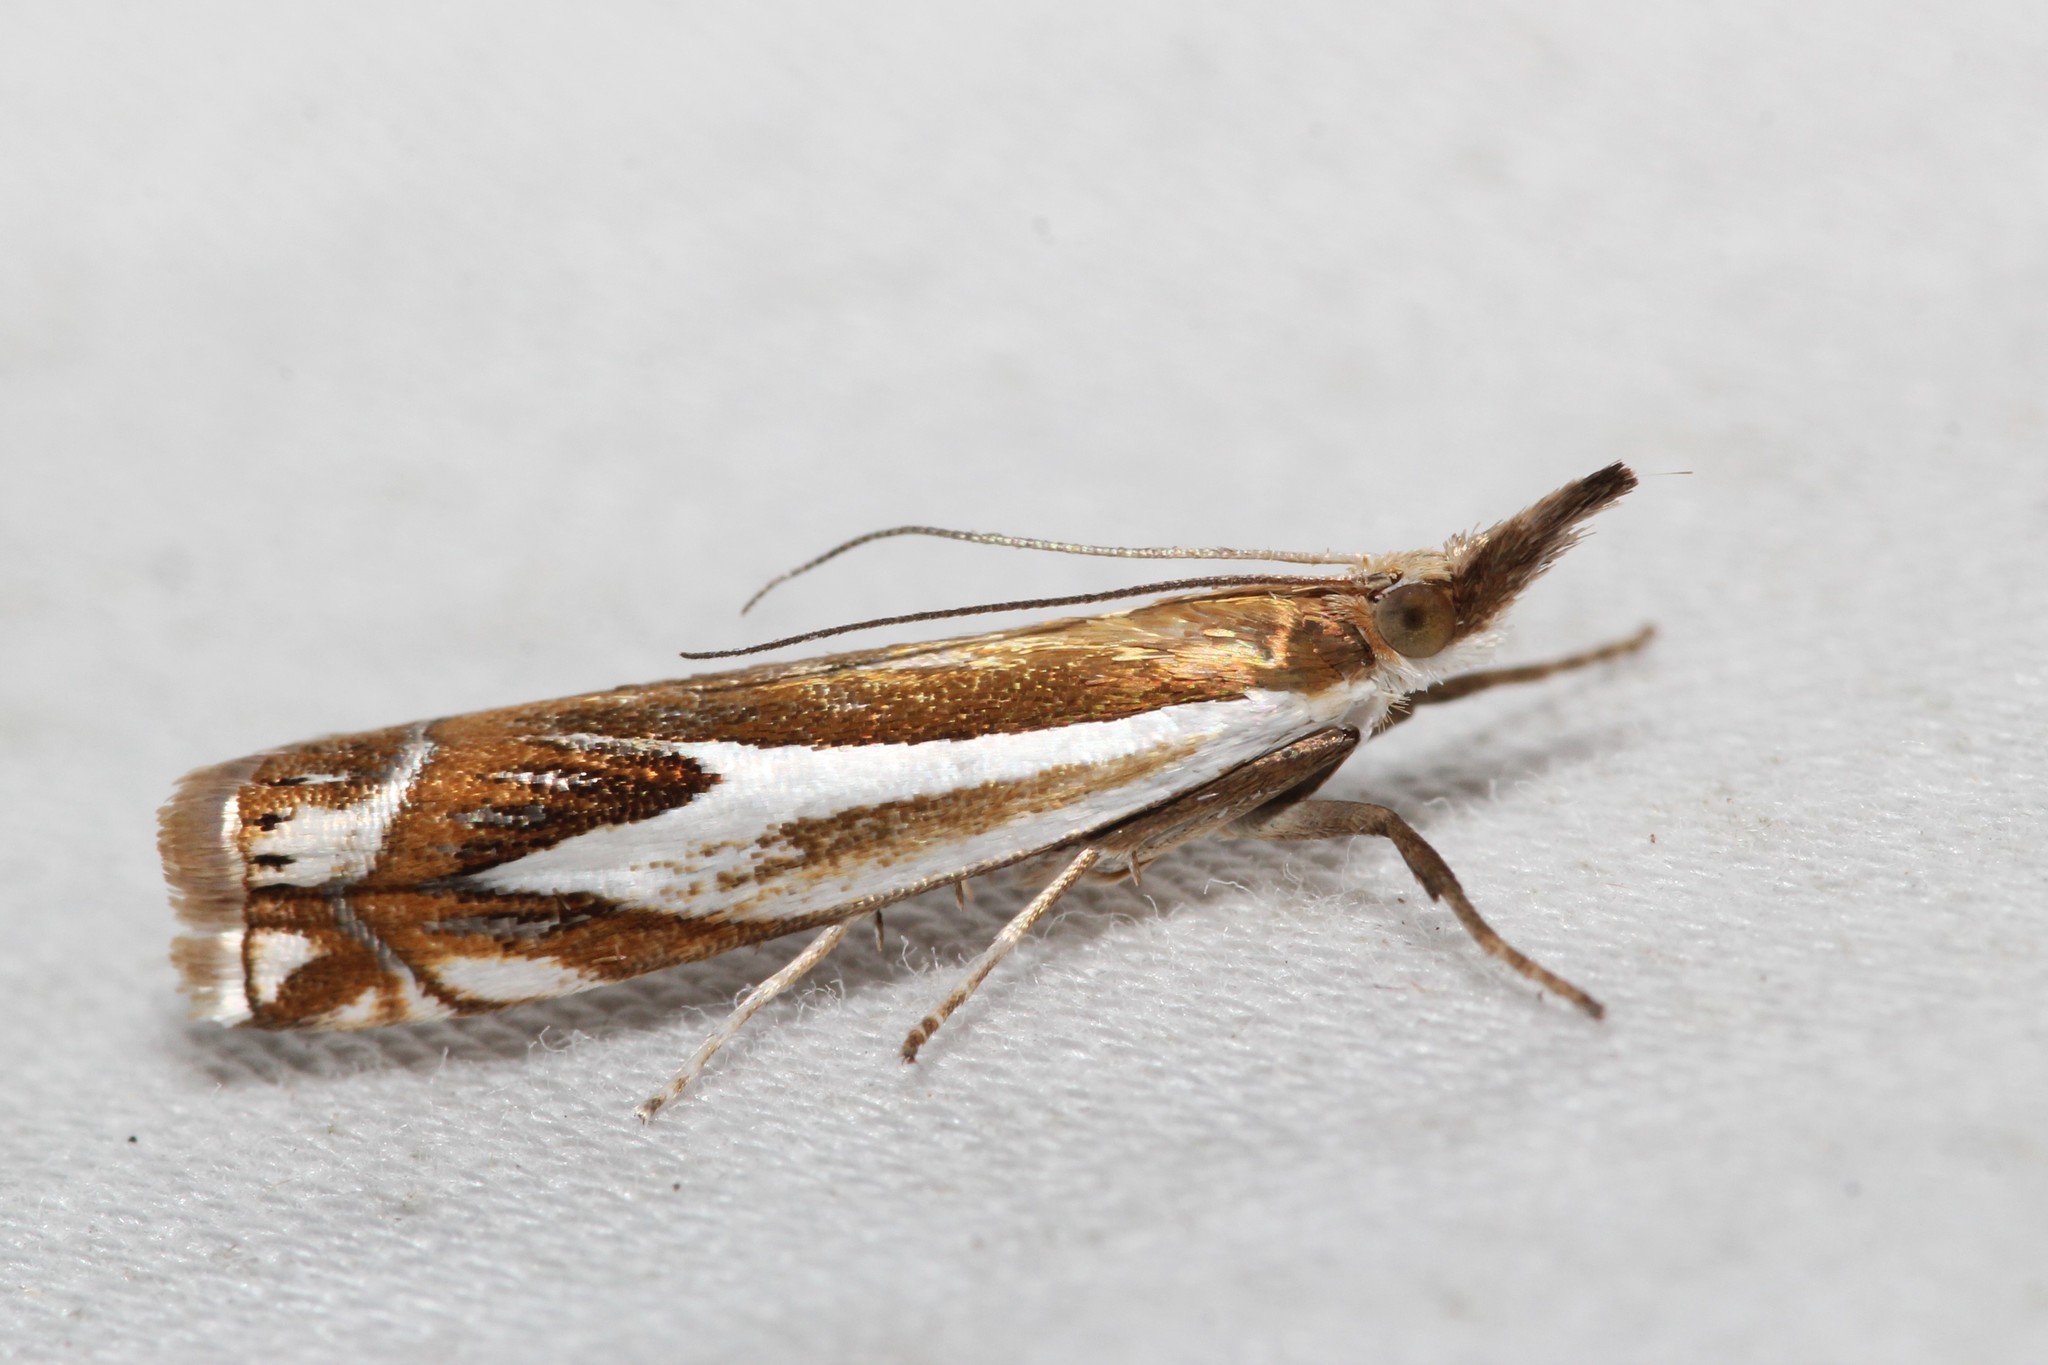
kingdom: Animalia
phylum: Arthropoda
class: Insecta
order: Lepidoptera
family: Crambidae
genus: Crambus
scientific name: Crambus bidens
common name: Forked grass-veneer
